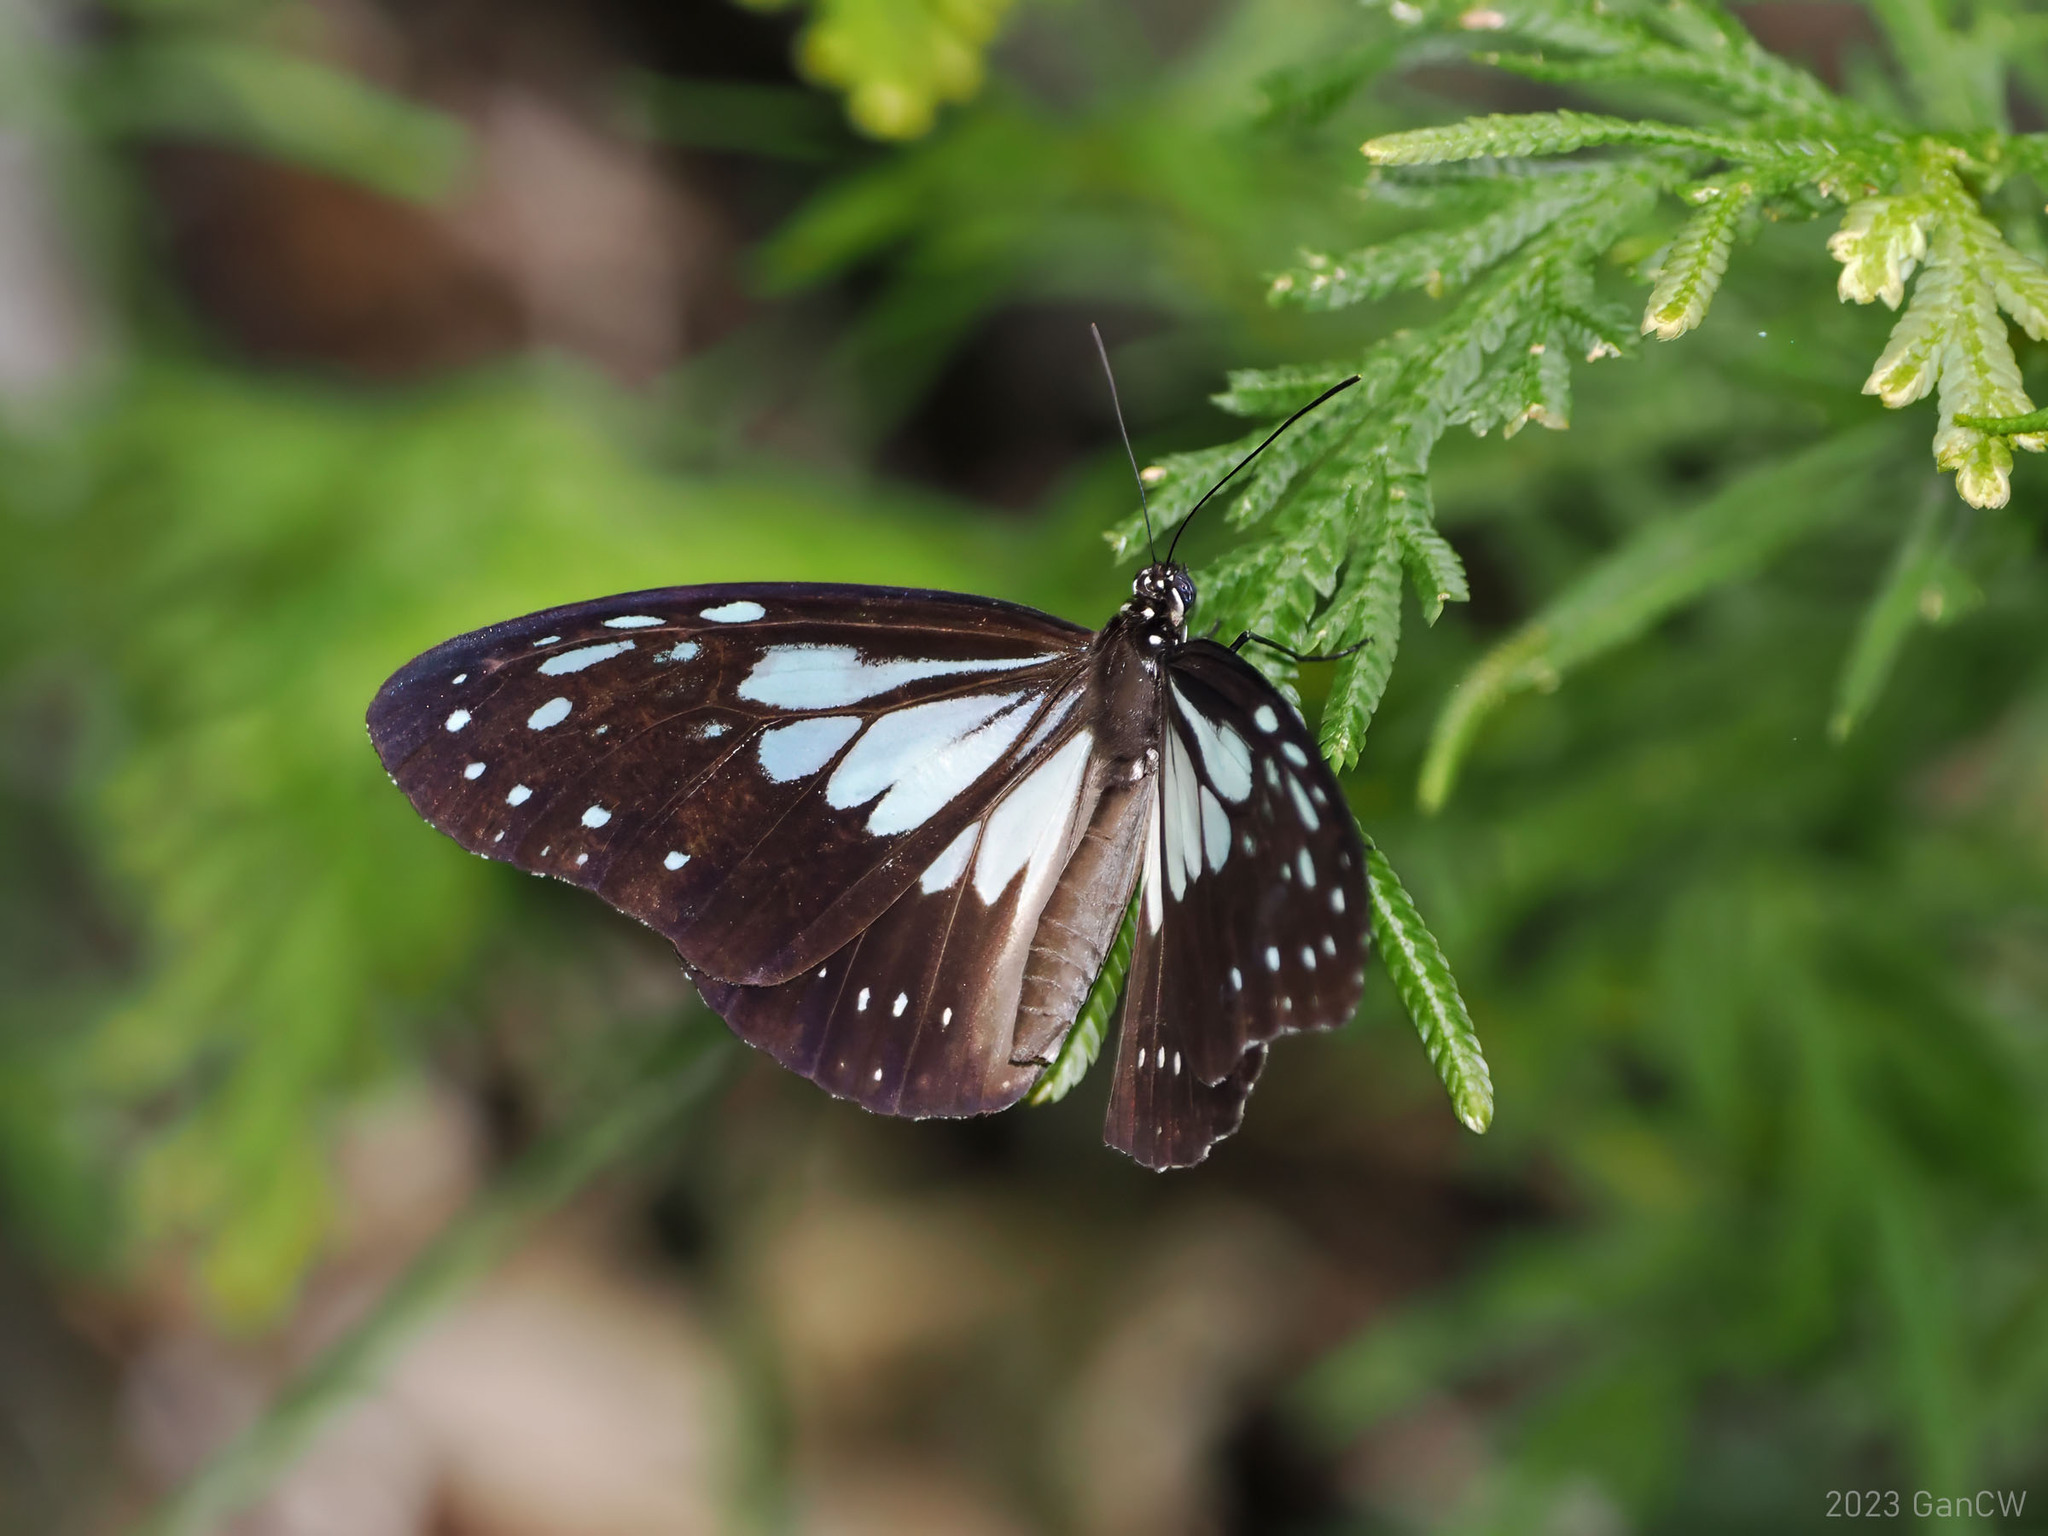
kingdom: Animalia
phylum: Arthropoda
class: Insecta
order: Lepidoptera
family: Nymphalidae
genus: Ideopsis
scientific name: Ideopsis juventa
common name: Grey glassy tiger
